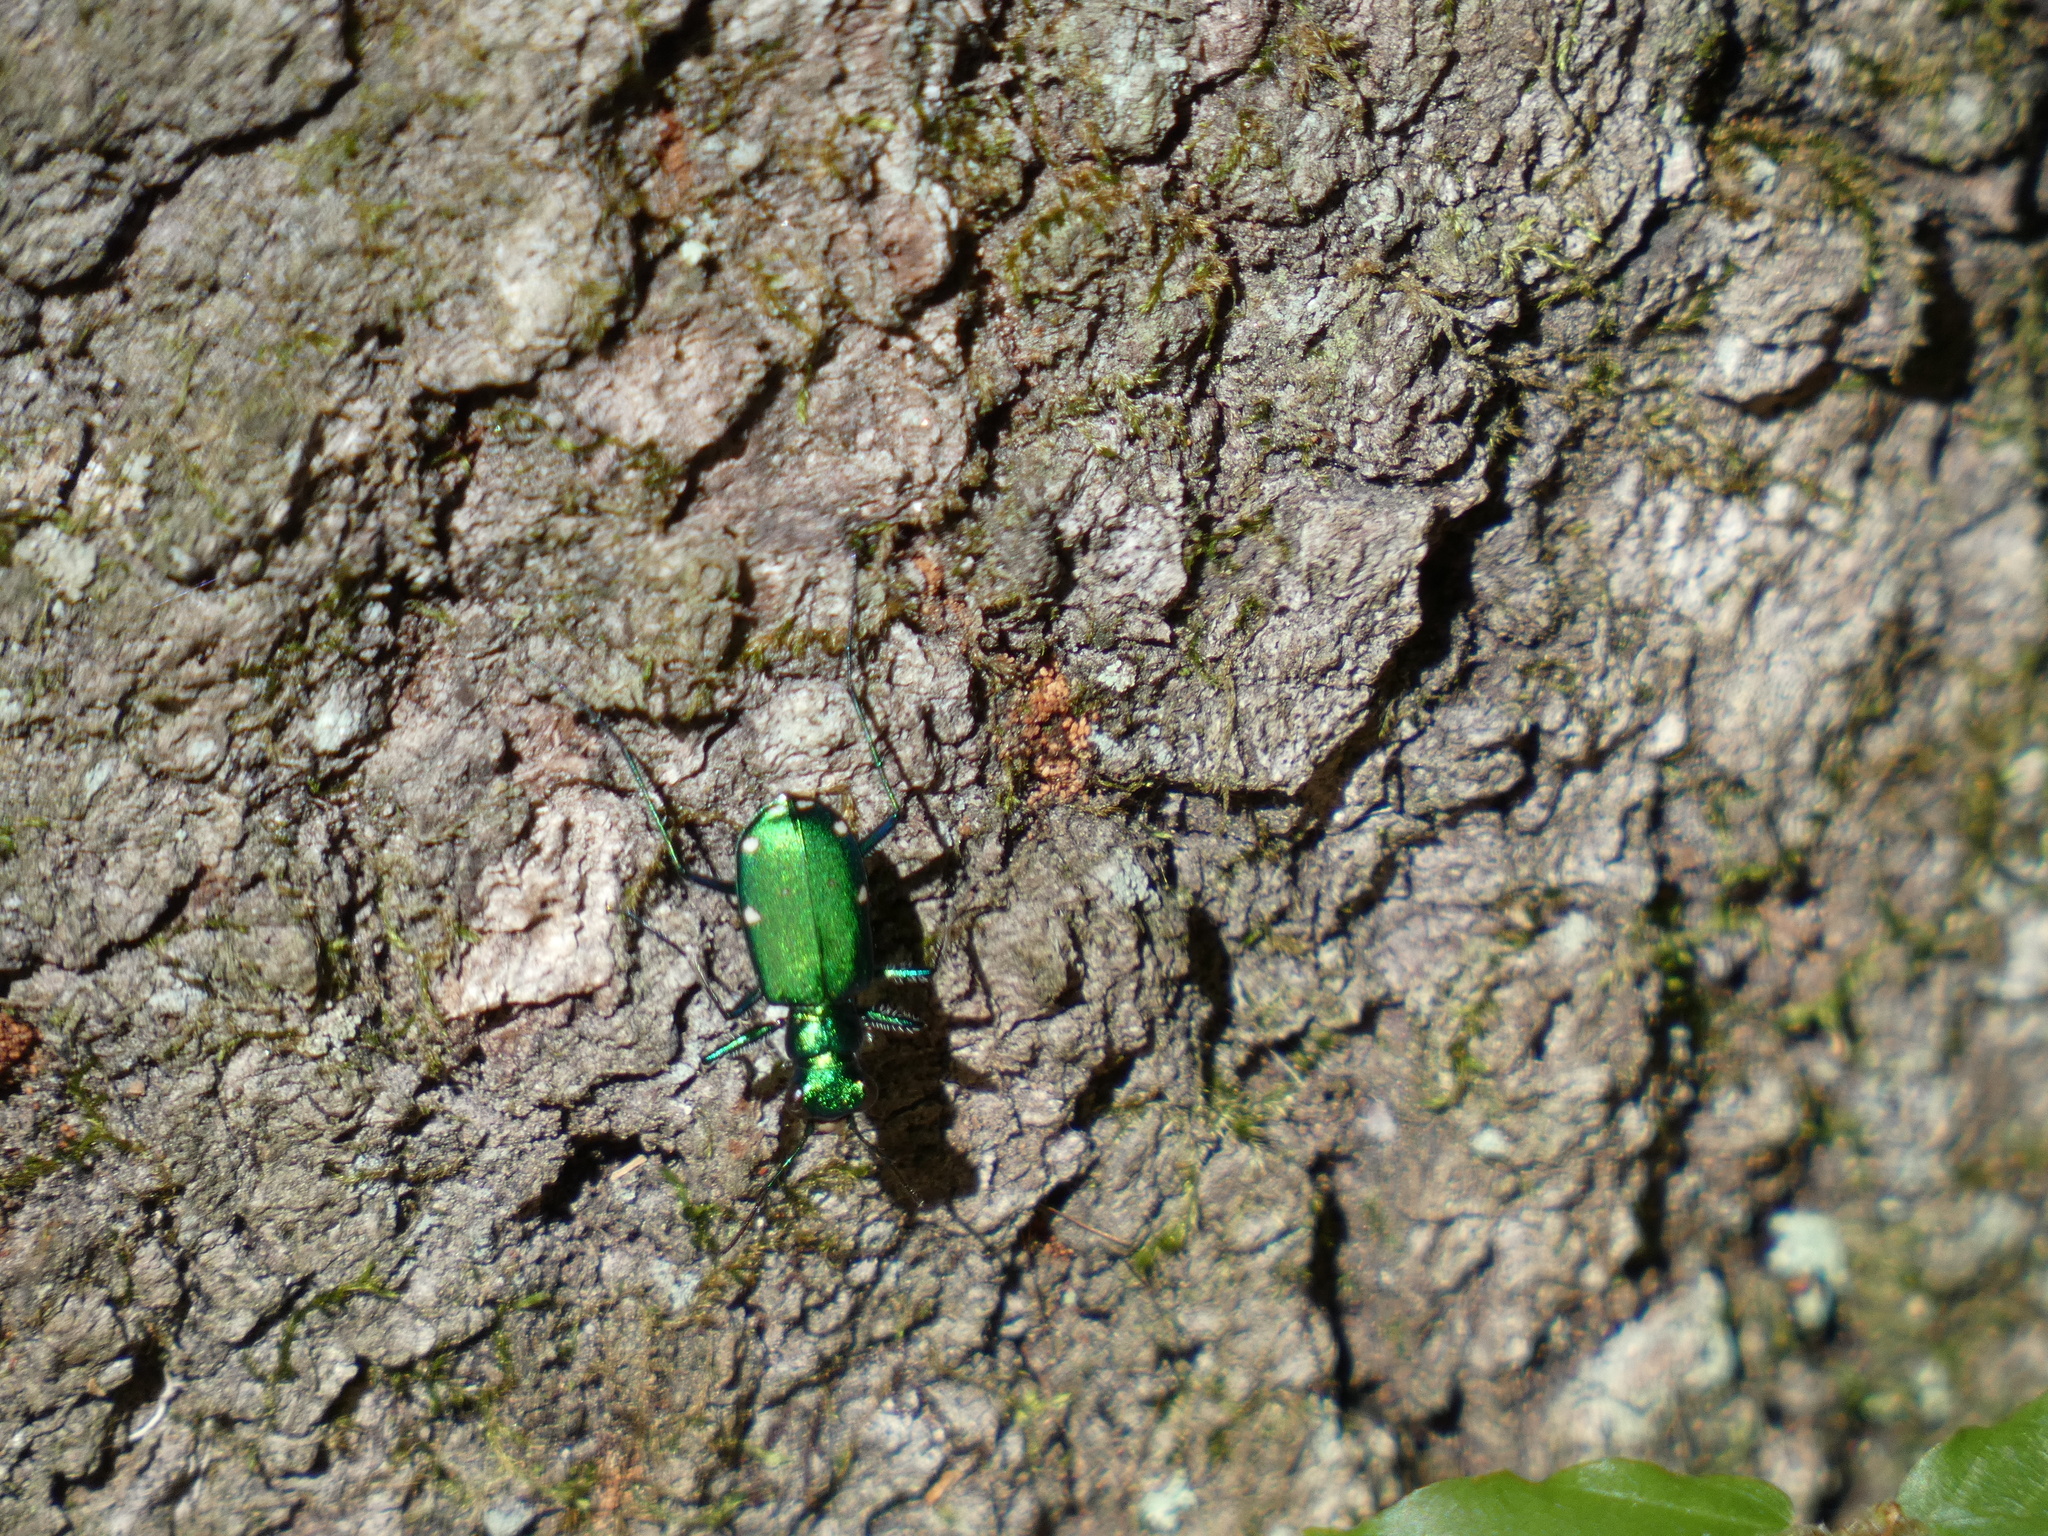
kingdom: Animalia
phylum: Arthropoda
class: Insecta
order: Coleoptera
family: Carabidae
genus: Cicindela
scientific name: Cicindela sexguttata
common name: Six-spotted tiger beetle
